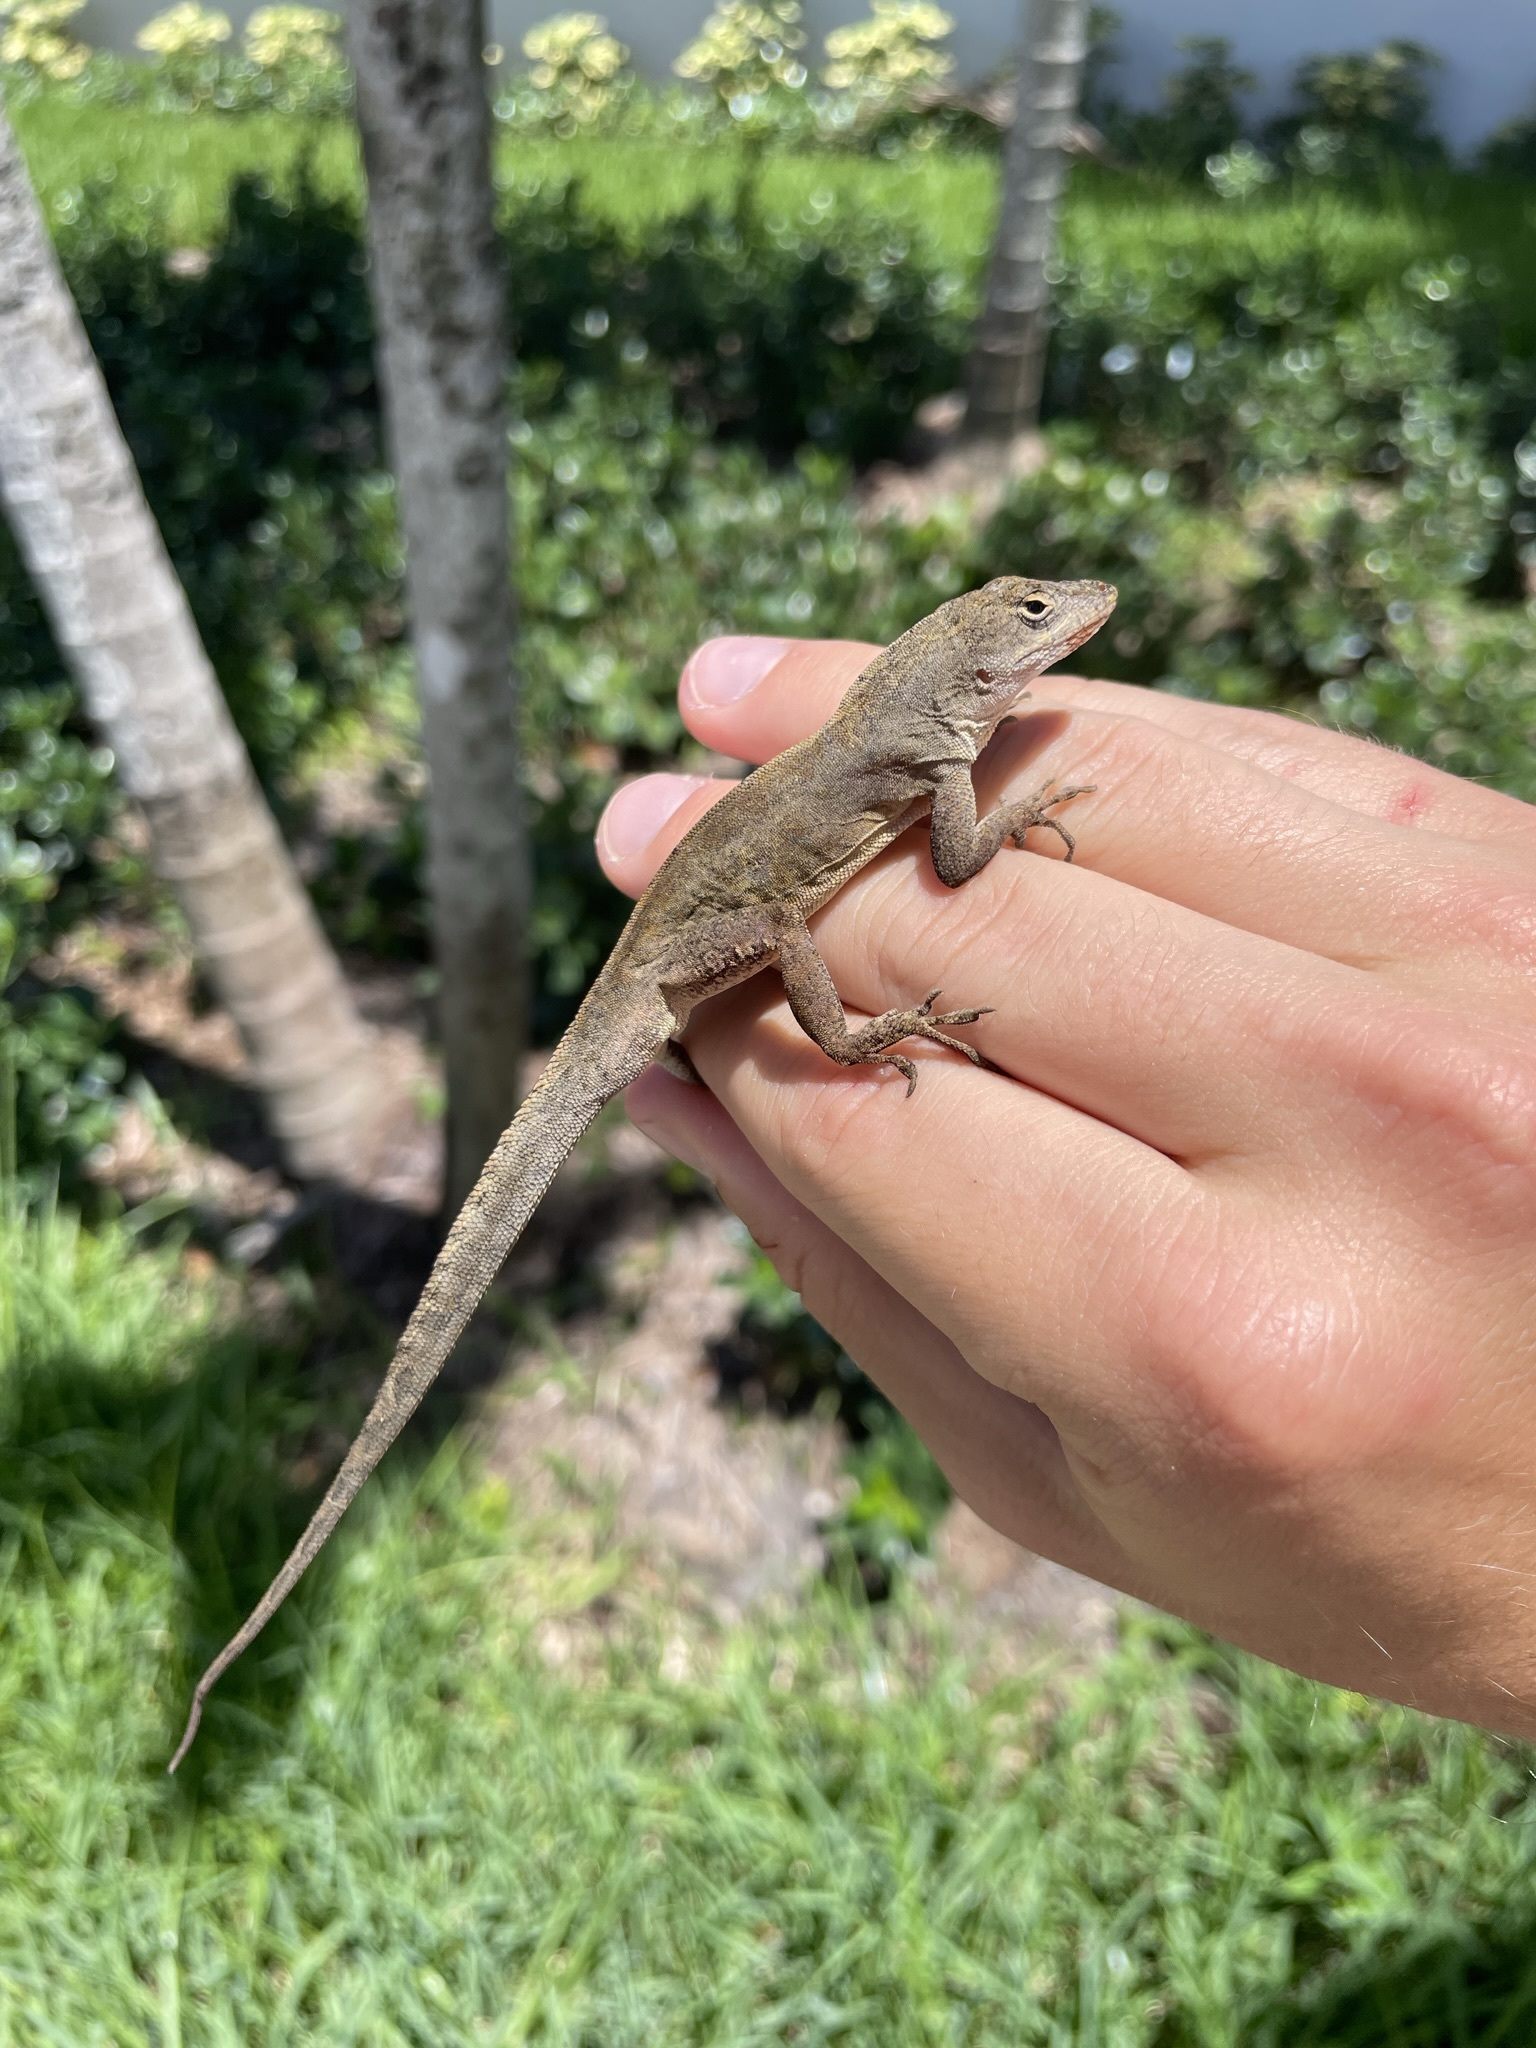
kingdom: Animalia
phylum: Chordata
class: Squamata
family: Dactyloidae
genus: Anolis
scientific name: Anolis sagrei
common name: Brown anole
